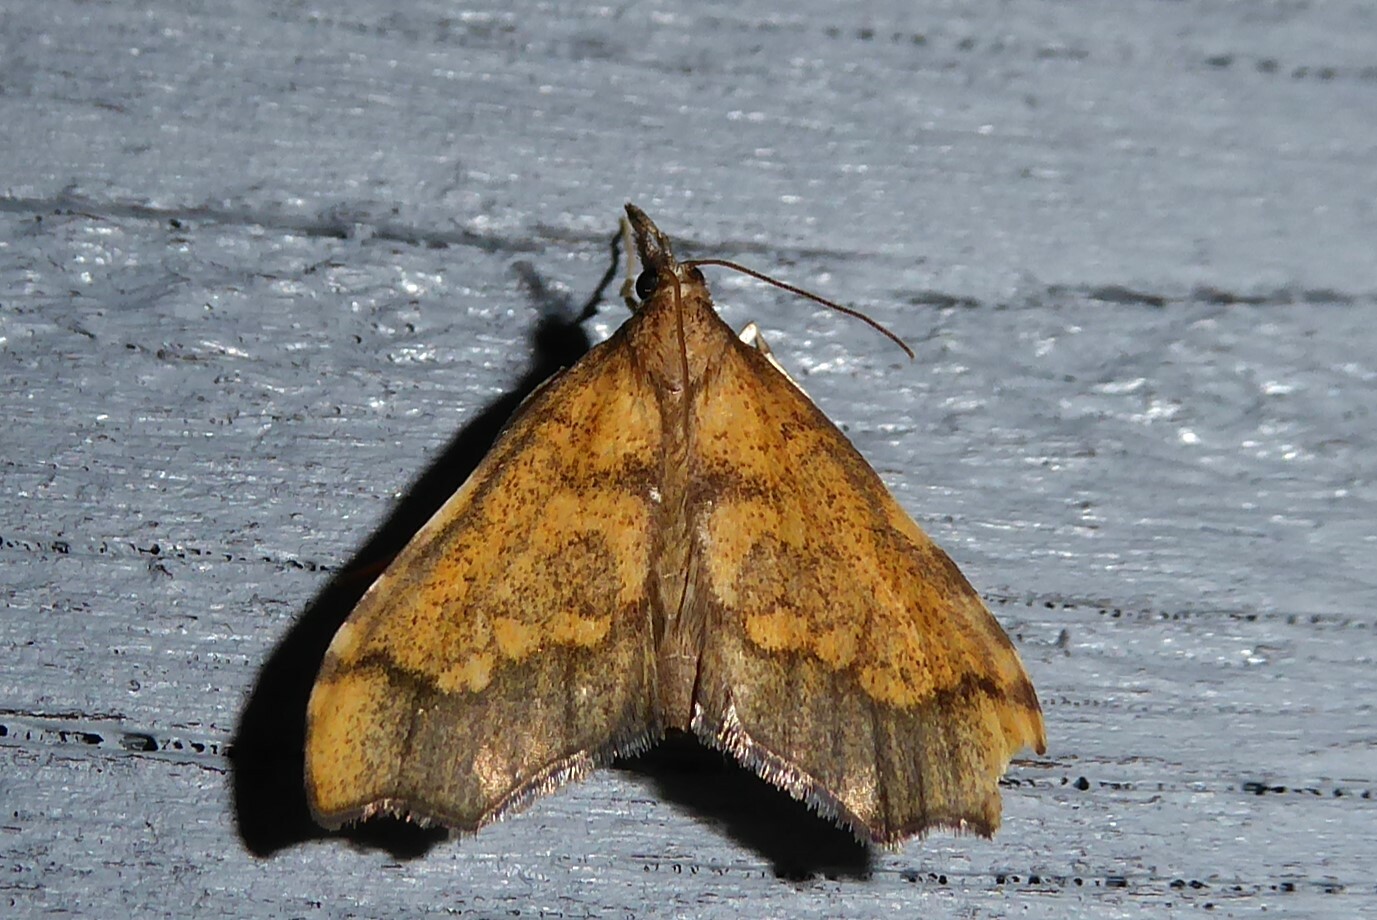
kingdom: Animalia
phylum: Arthropoda
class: Insecta
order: Lepidoptera
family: Crambidae
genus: Deana
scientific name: Deana hybreasalis
